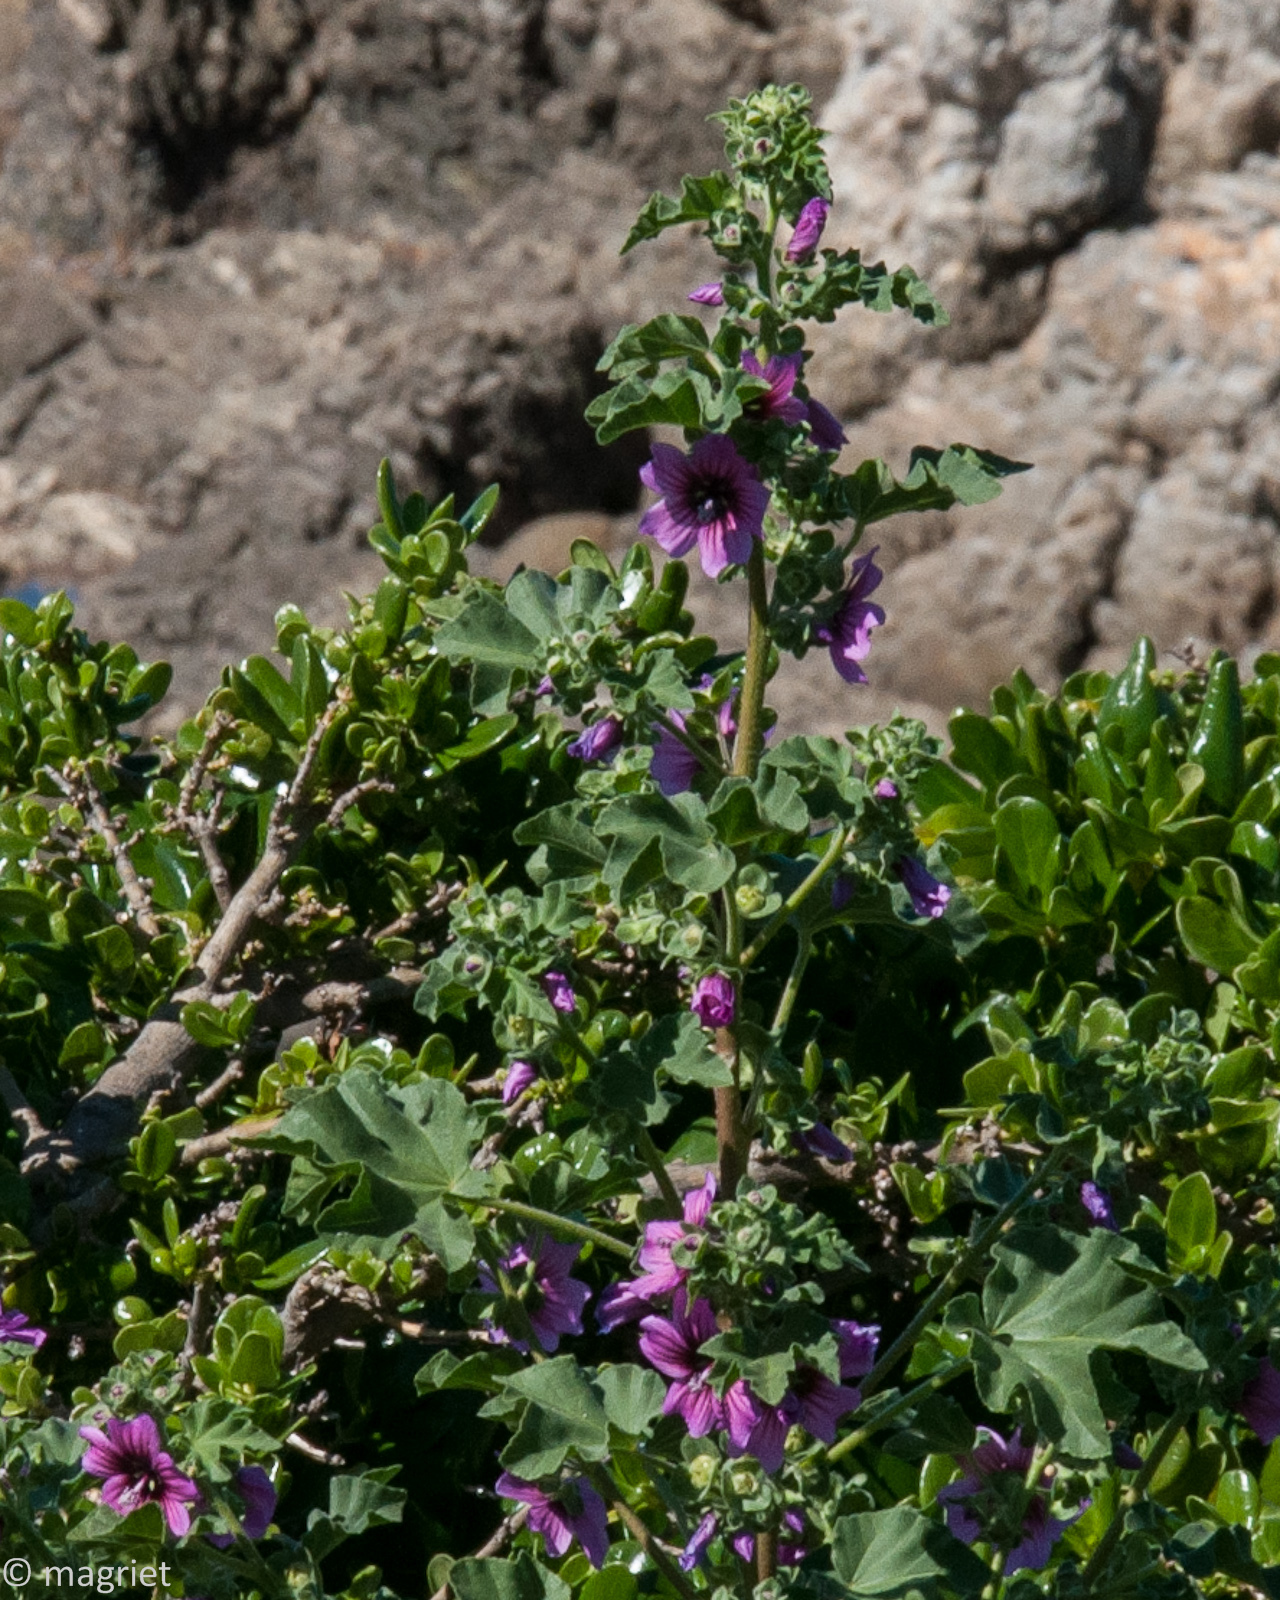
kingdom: Plantae
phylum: Tracheophyta
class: Magnoliopsida
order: Malvales
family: Malvaceae
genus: Malva
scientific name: Malva arborea
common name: Tree mallow
